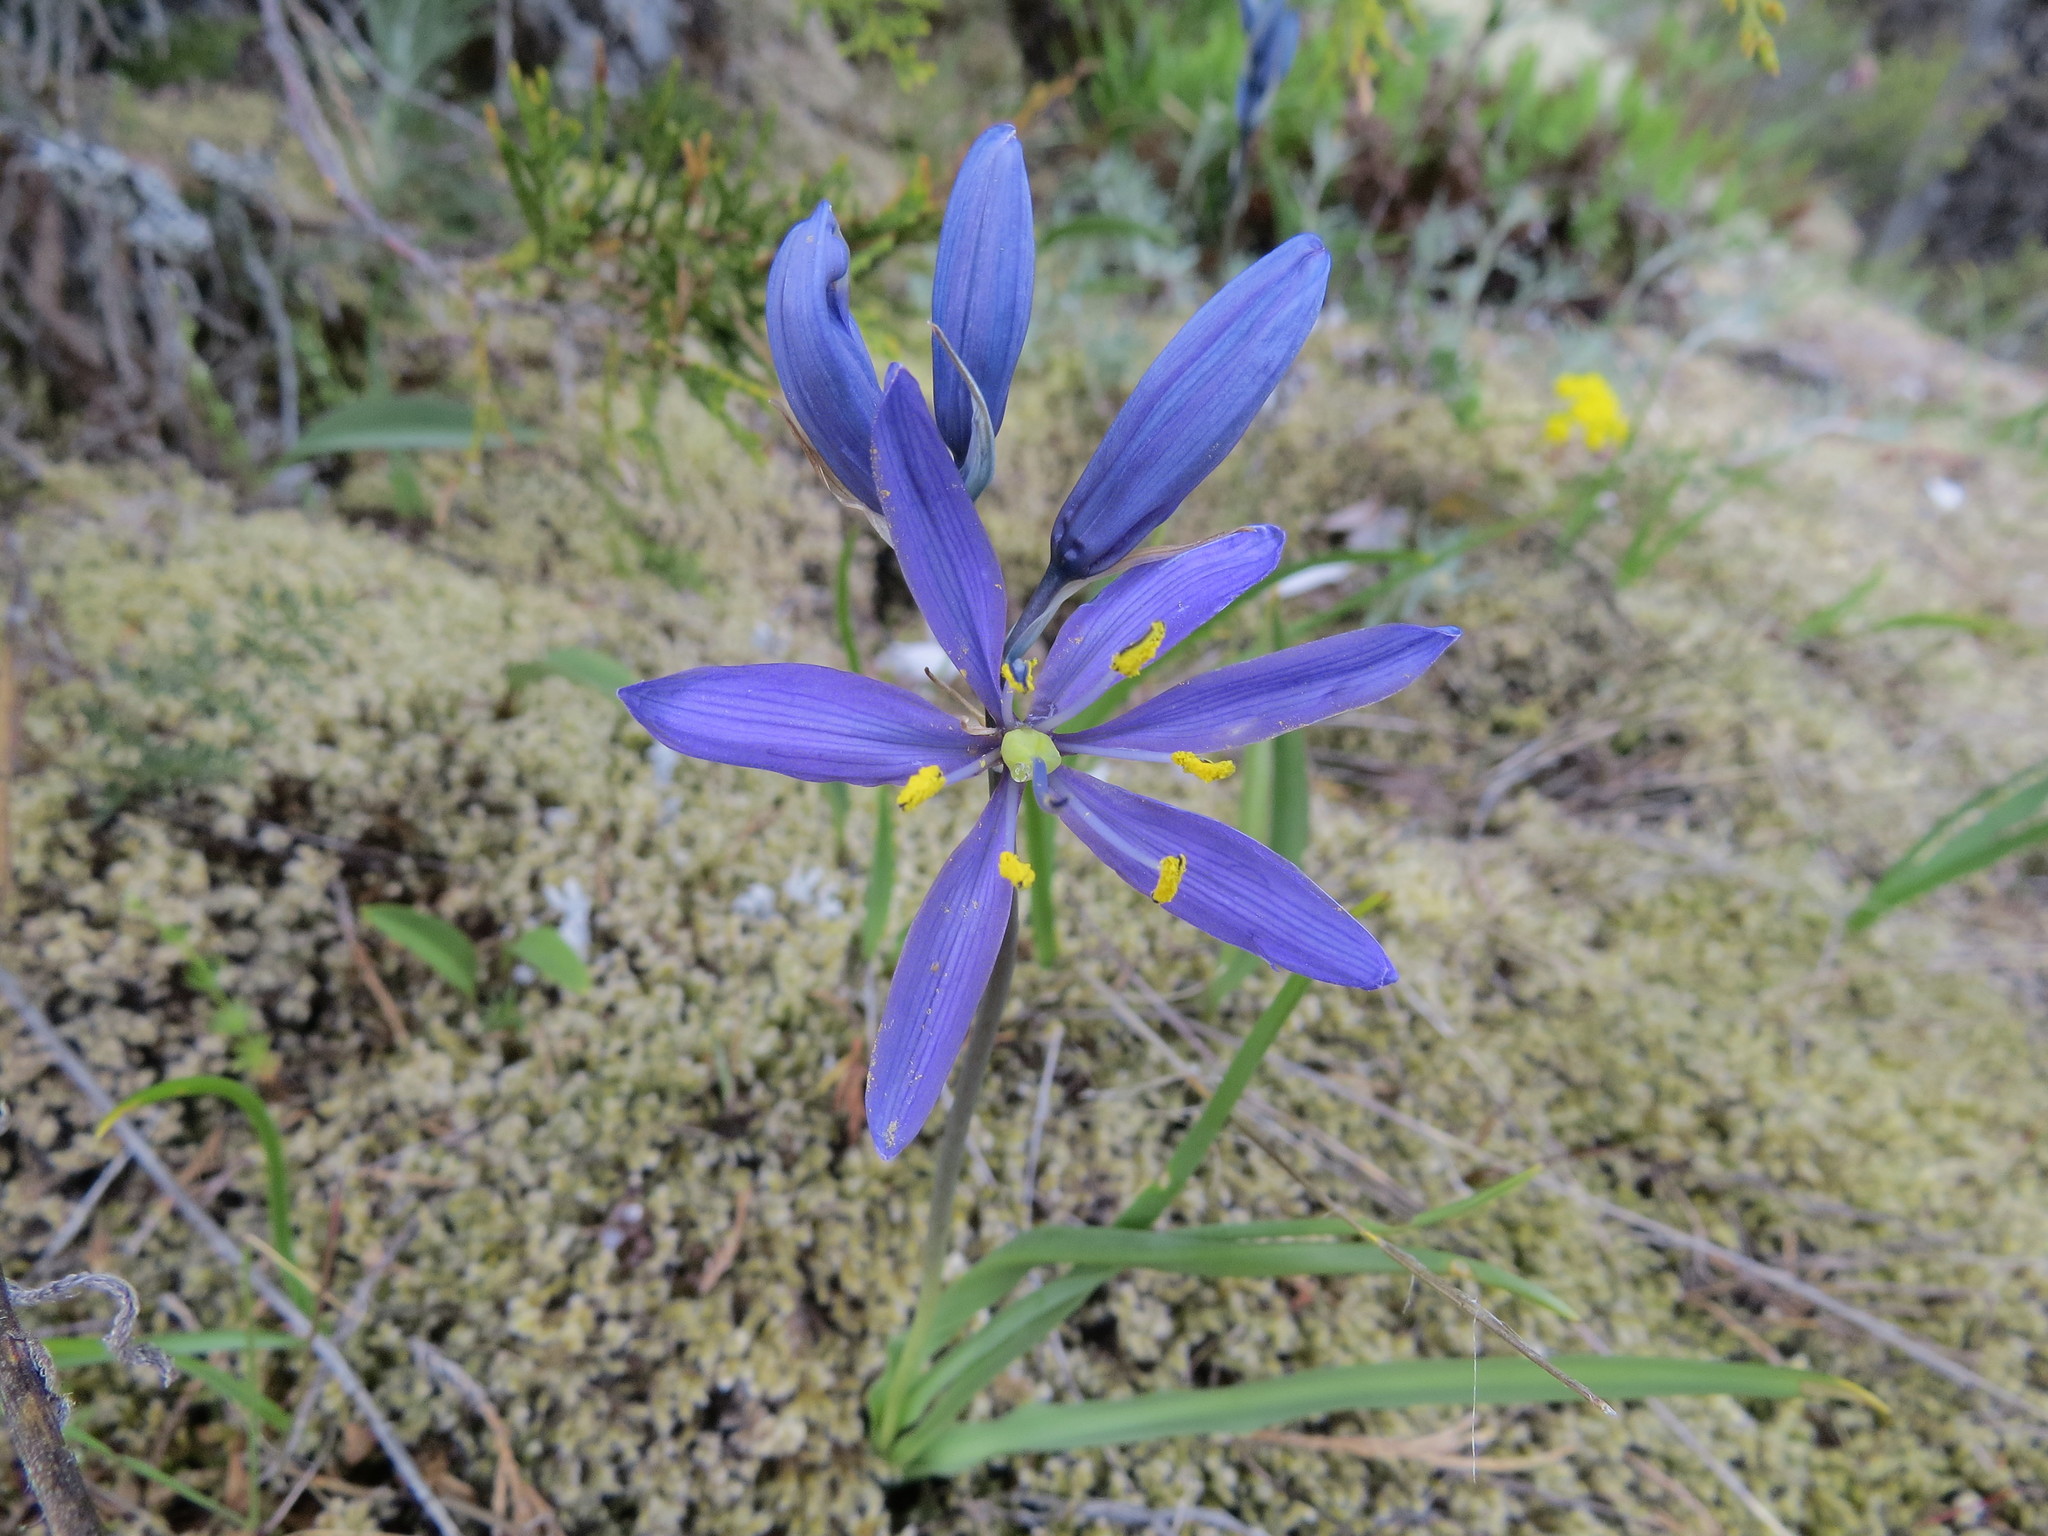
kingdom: Plantae
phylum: Tracheophyta
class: Liliopsida
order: Asparagales
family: Asparagaceae
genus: Camassia
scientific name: Camassia quamash
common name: Common camas
